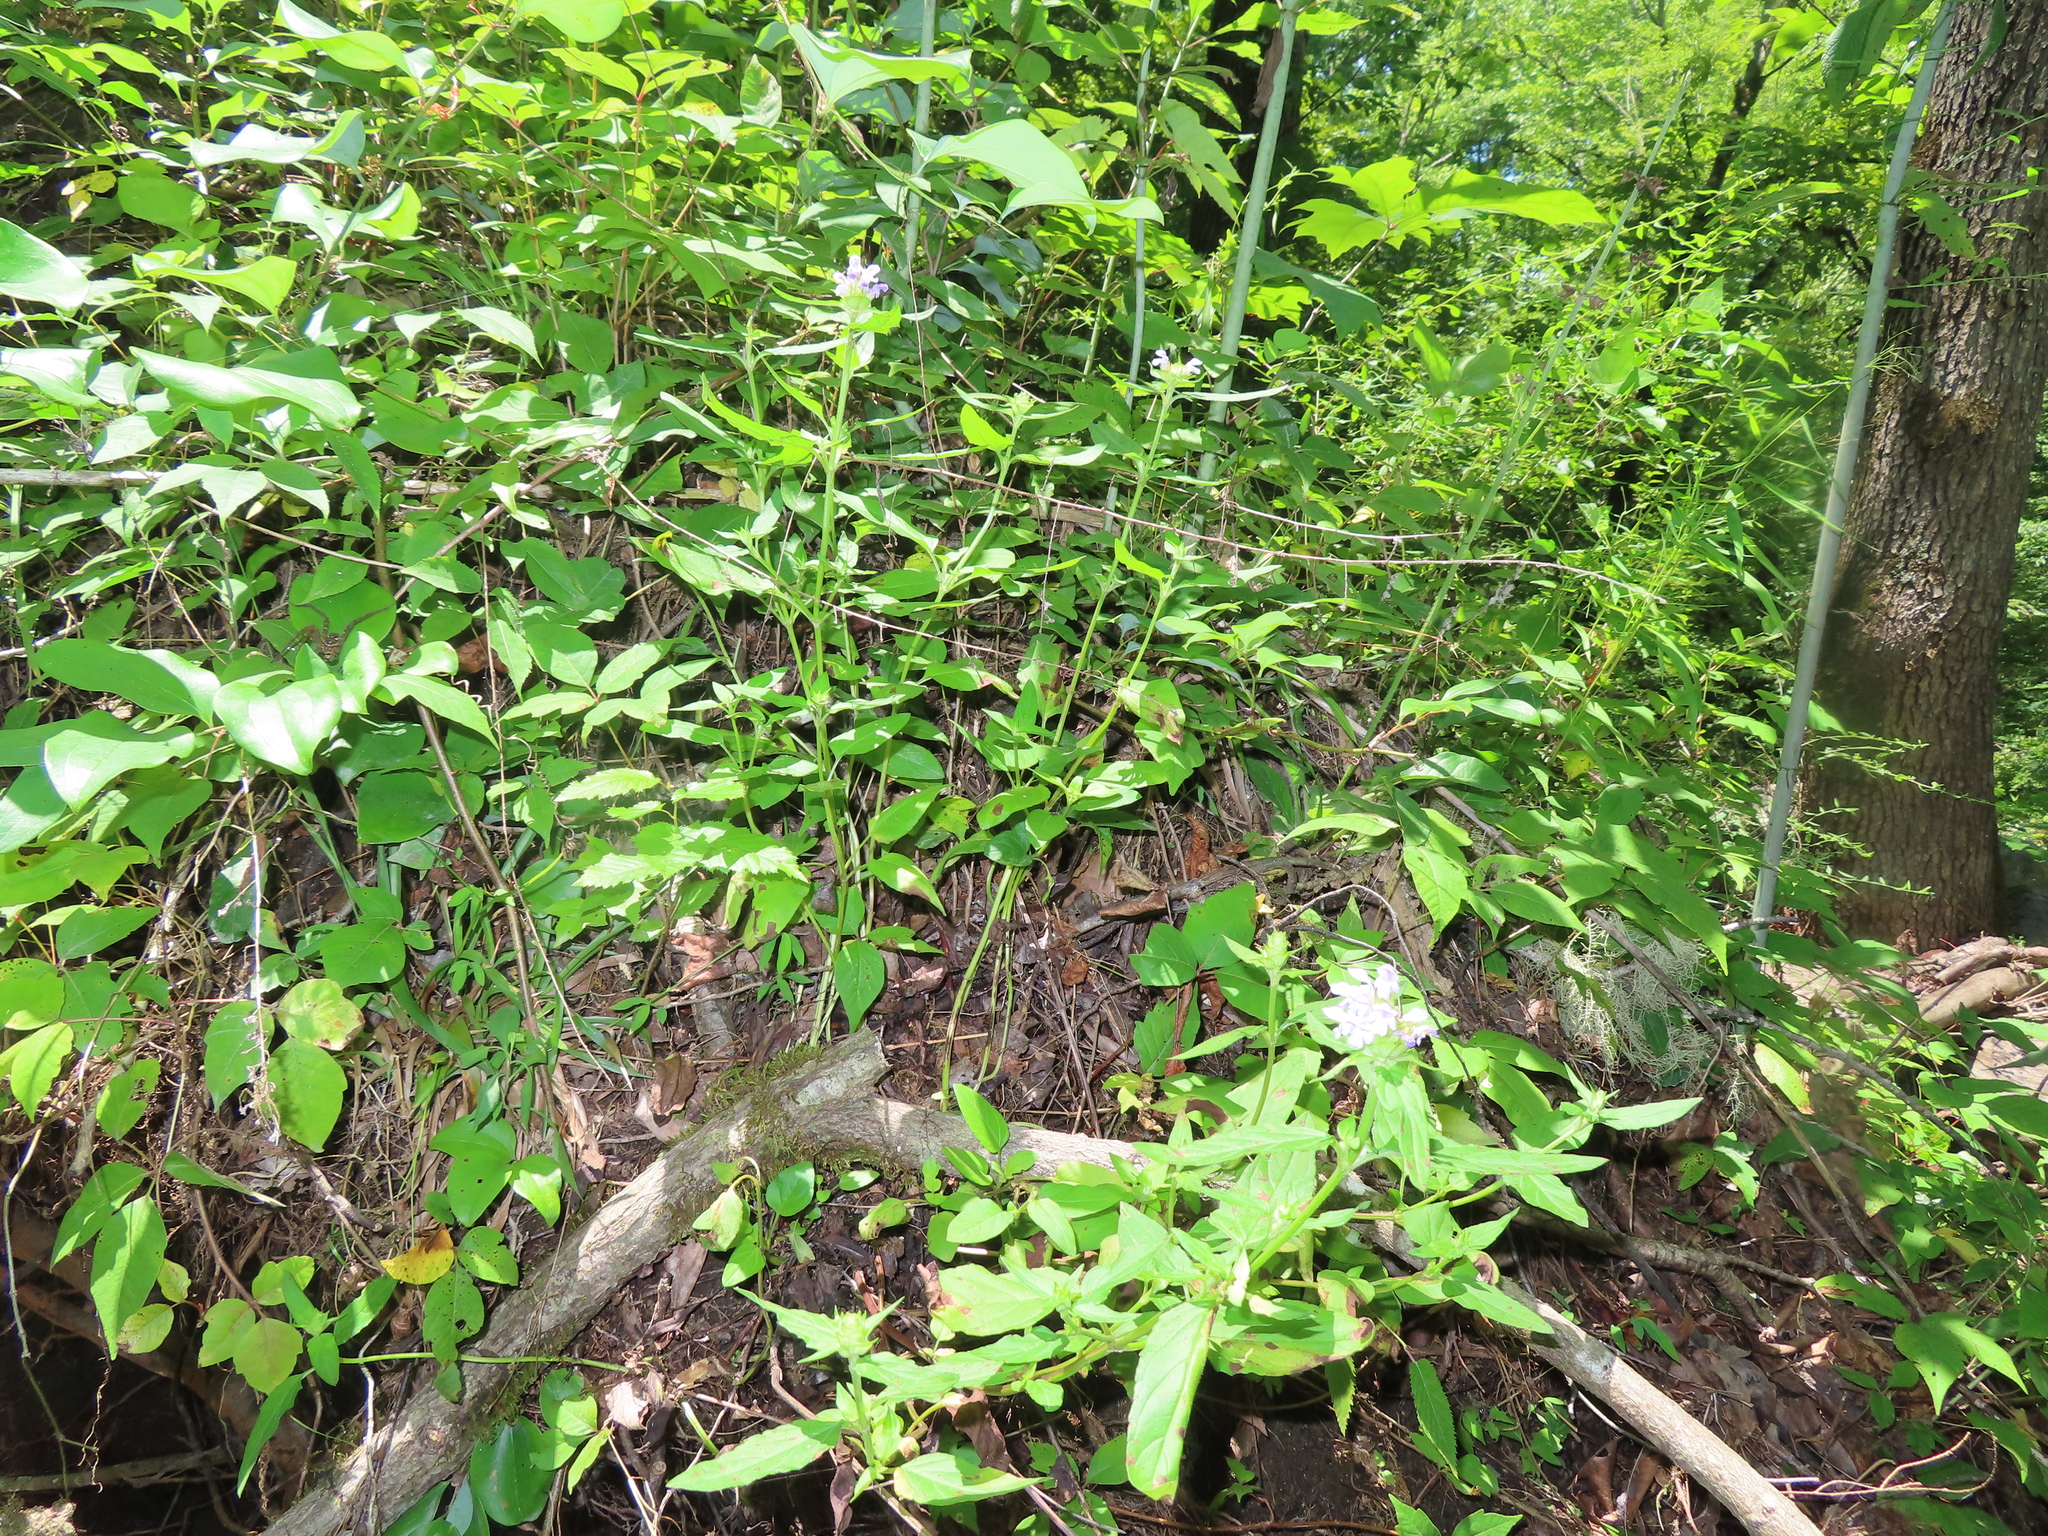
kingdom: Plantae
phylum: Tracheophyta
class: Magnoliopsida
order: Lamiales
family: Lamiaceae
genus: Prunella
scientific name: Prunella vulgaris
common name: Heal-all
